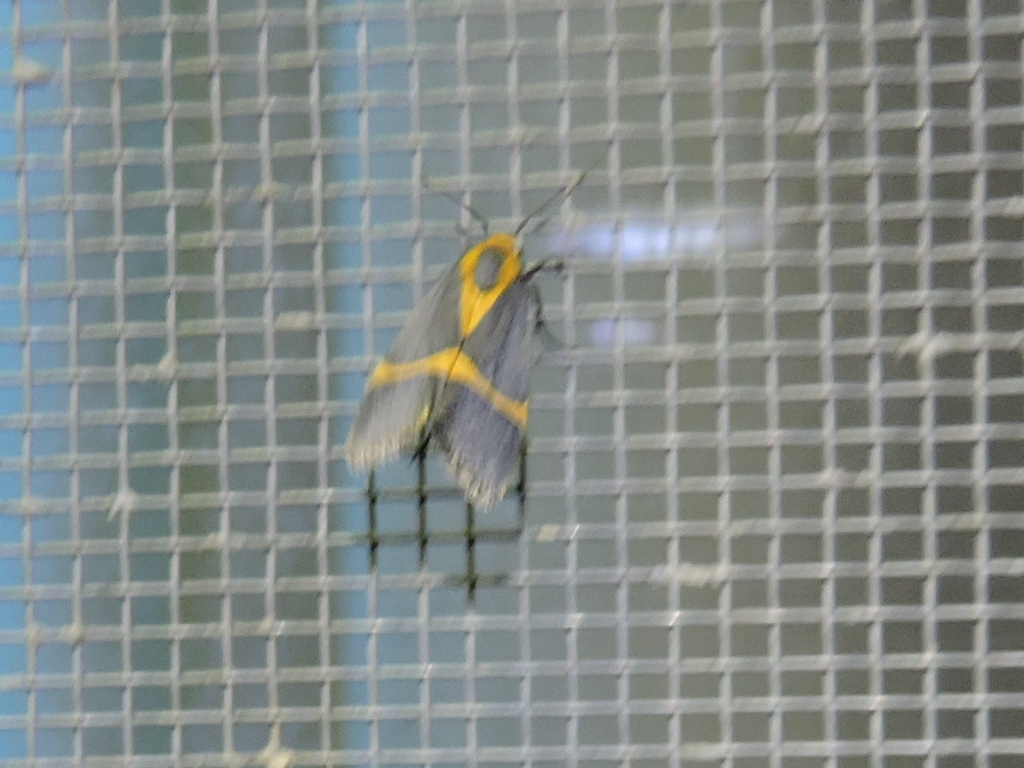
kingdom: Animalia
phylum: Arthropoda
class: Insecta
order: Lepidoptera
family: Erebidae
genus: Cisthene
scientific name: Cisthene tenuifascia
